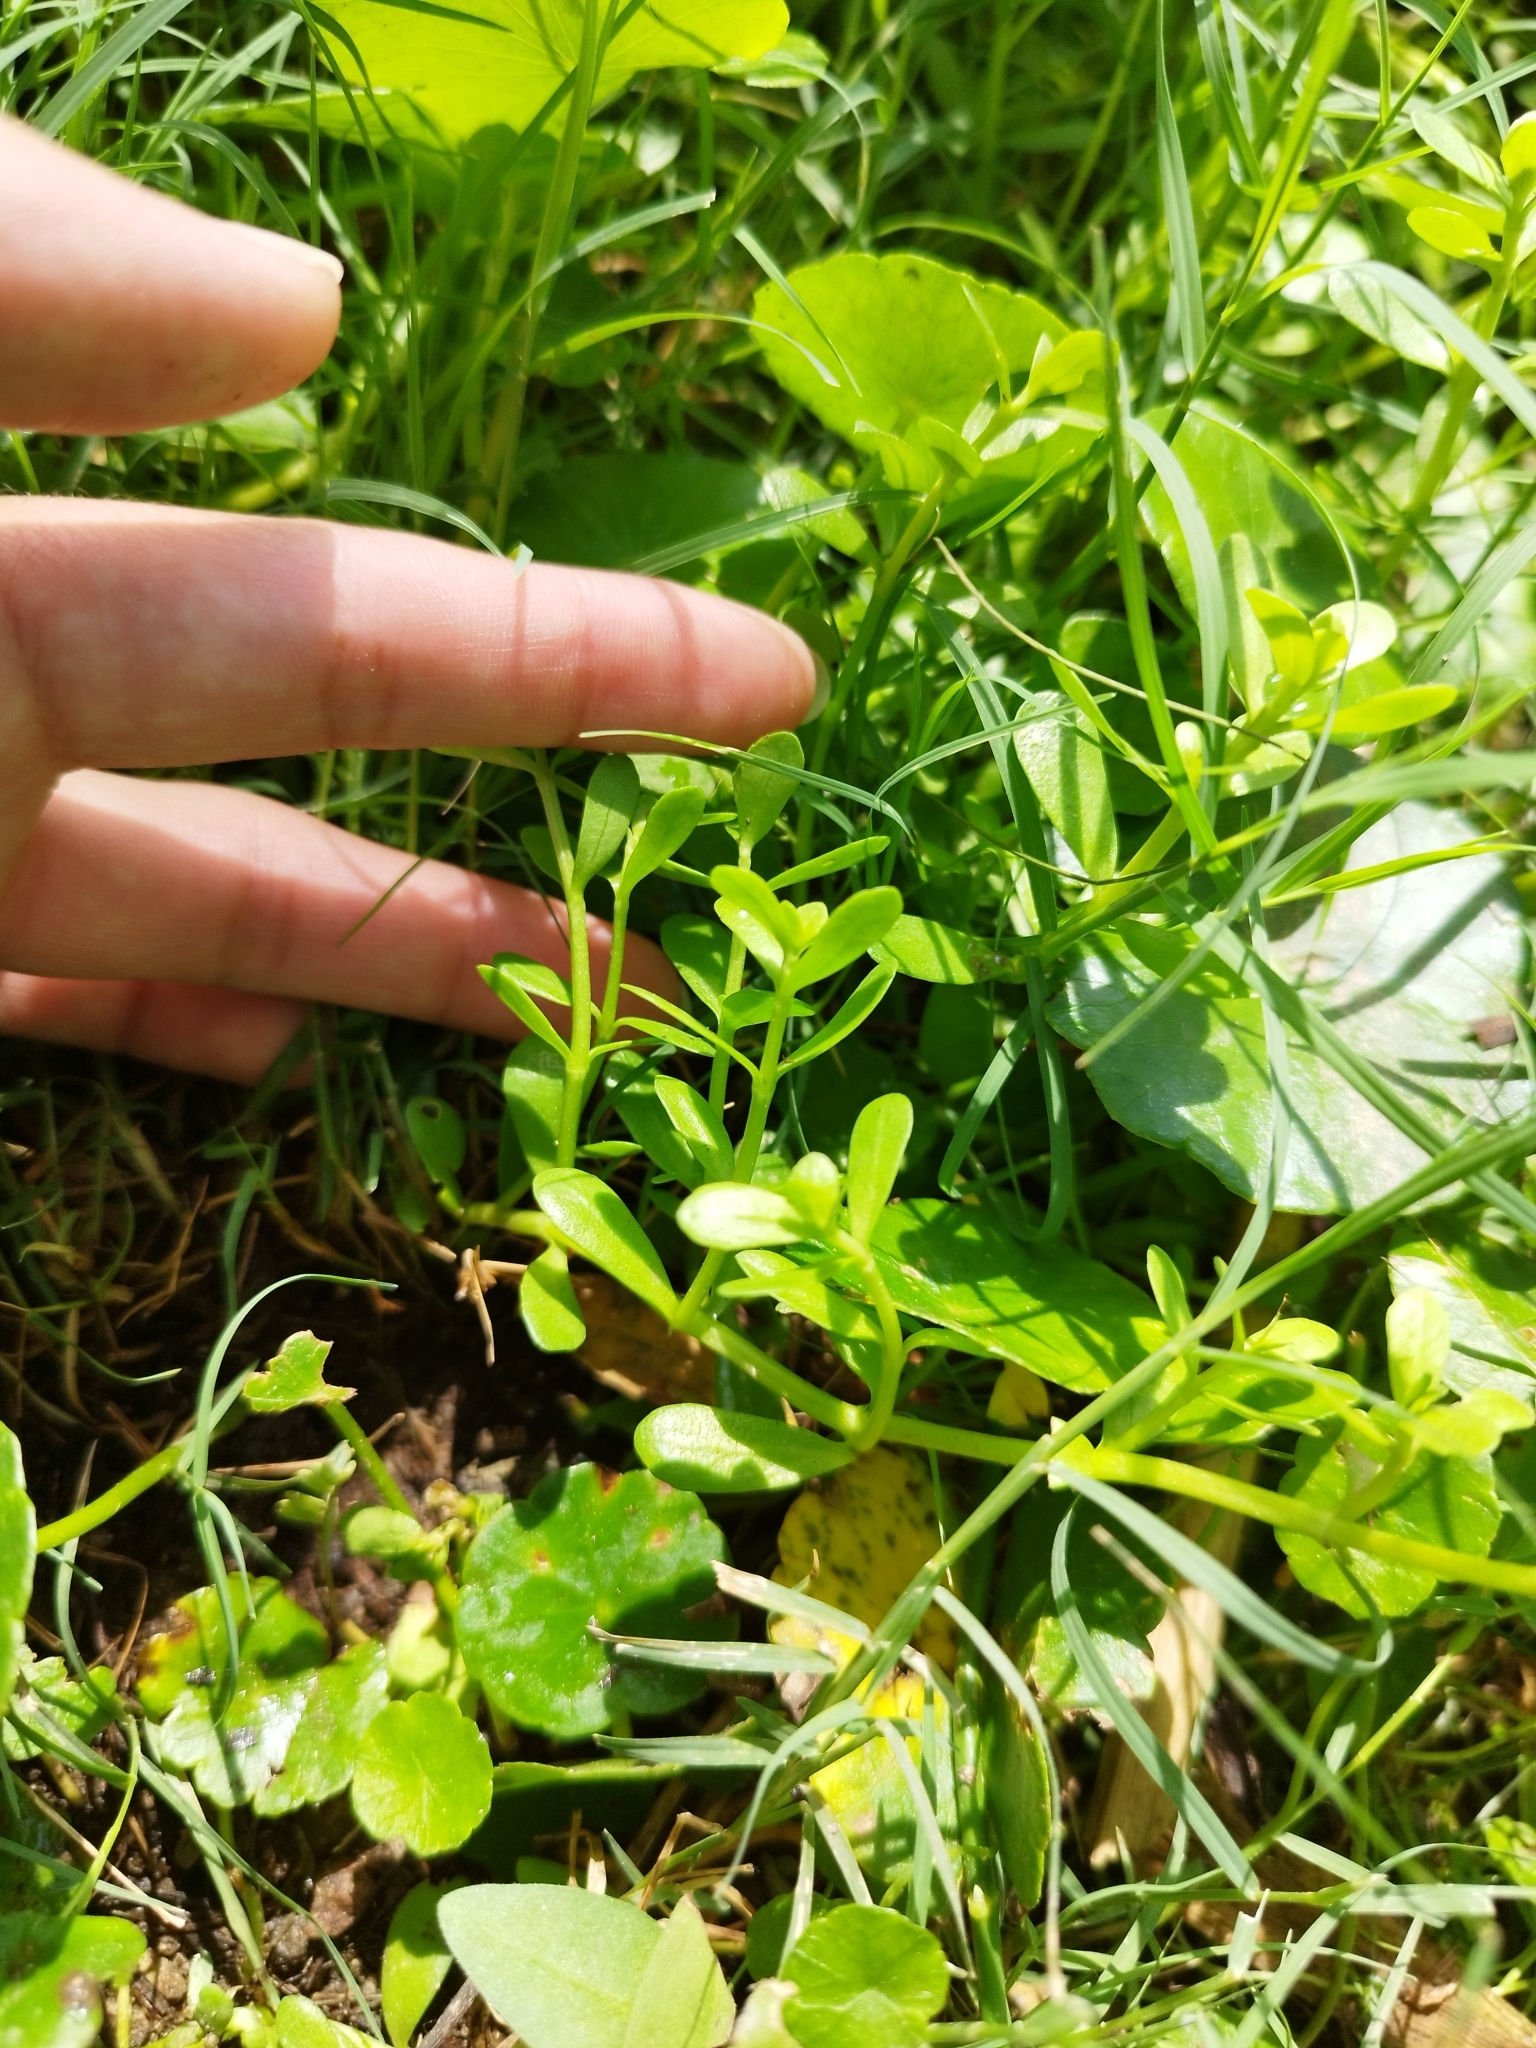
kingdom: Plantae
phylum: Tracheophyta
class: Magnoliopsida
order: Lamiales
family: Plantaginaceae
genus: Bacopa
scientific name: Bacopa monnieri
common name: Indian-pennywort
